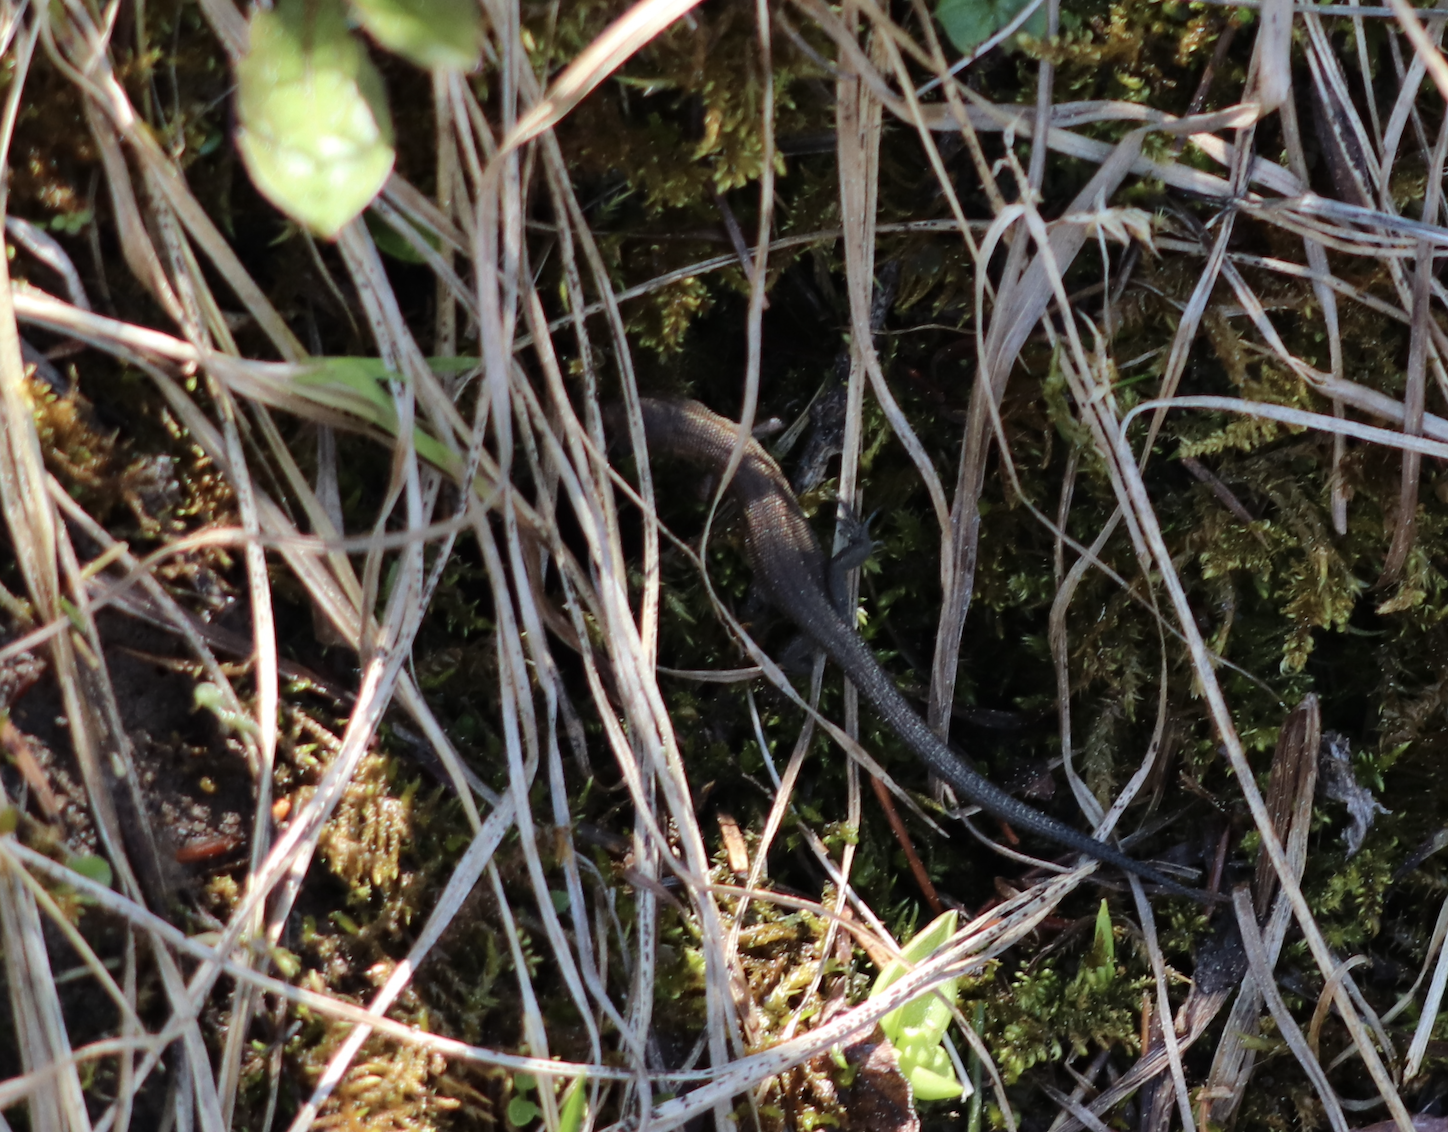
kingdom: Animalia
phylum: Chordata
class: Squamata
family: Lacertidae
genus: Zootoca
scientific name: Zootoca vivipara
